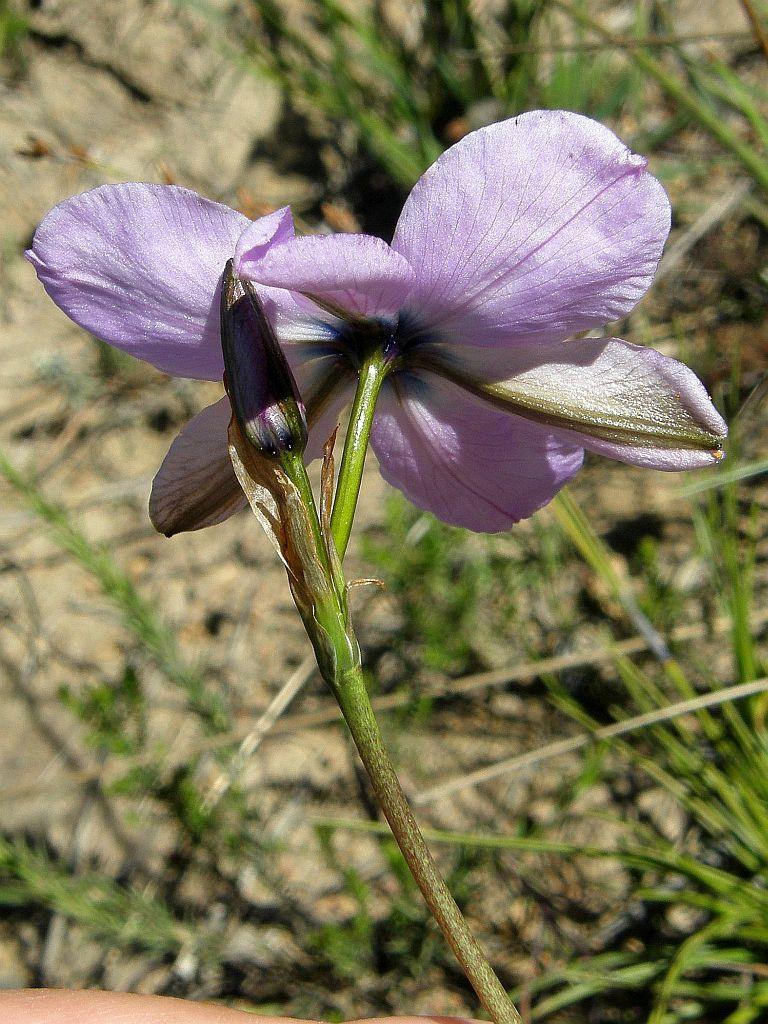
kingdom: Plantae
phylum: Tracheophyta
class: Liliopsida
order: Asparagales
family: Iridaceae
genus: Aristea
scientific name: Aristea cantharophila
